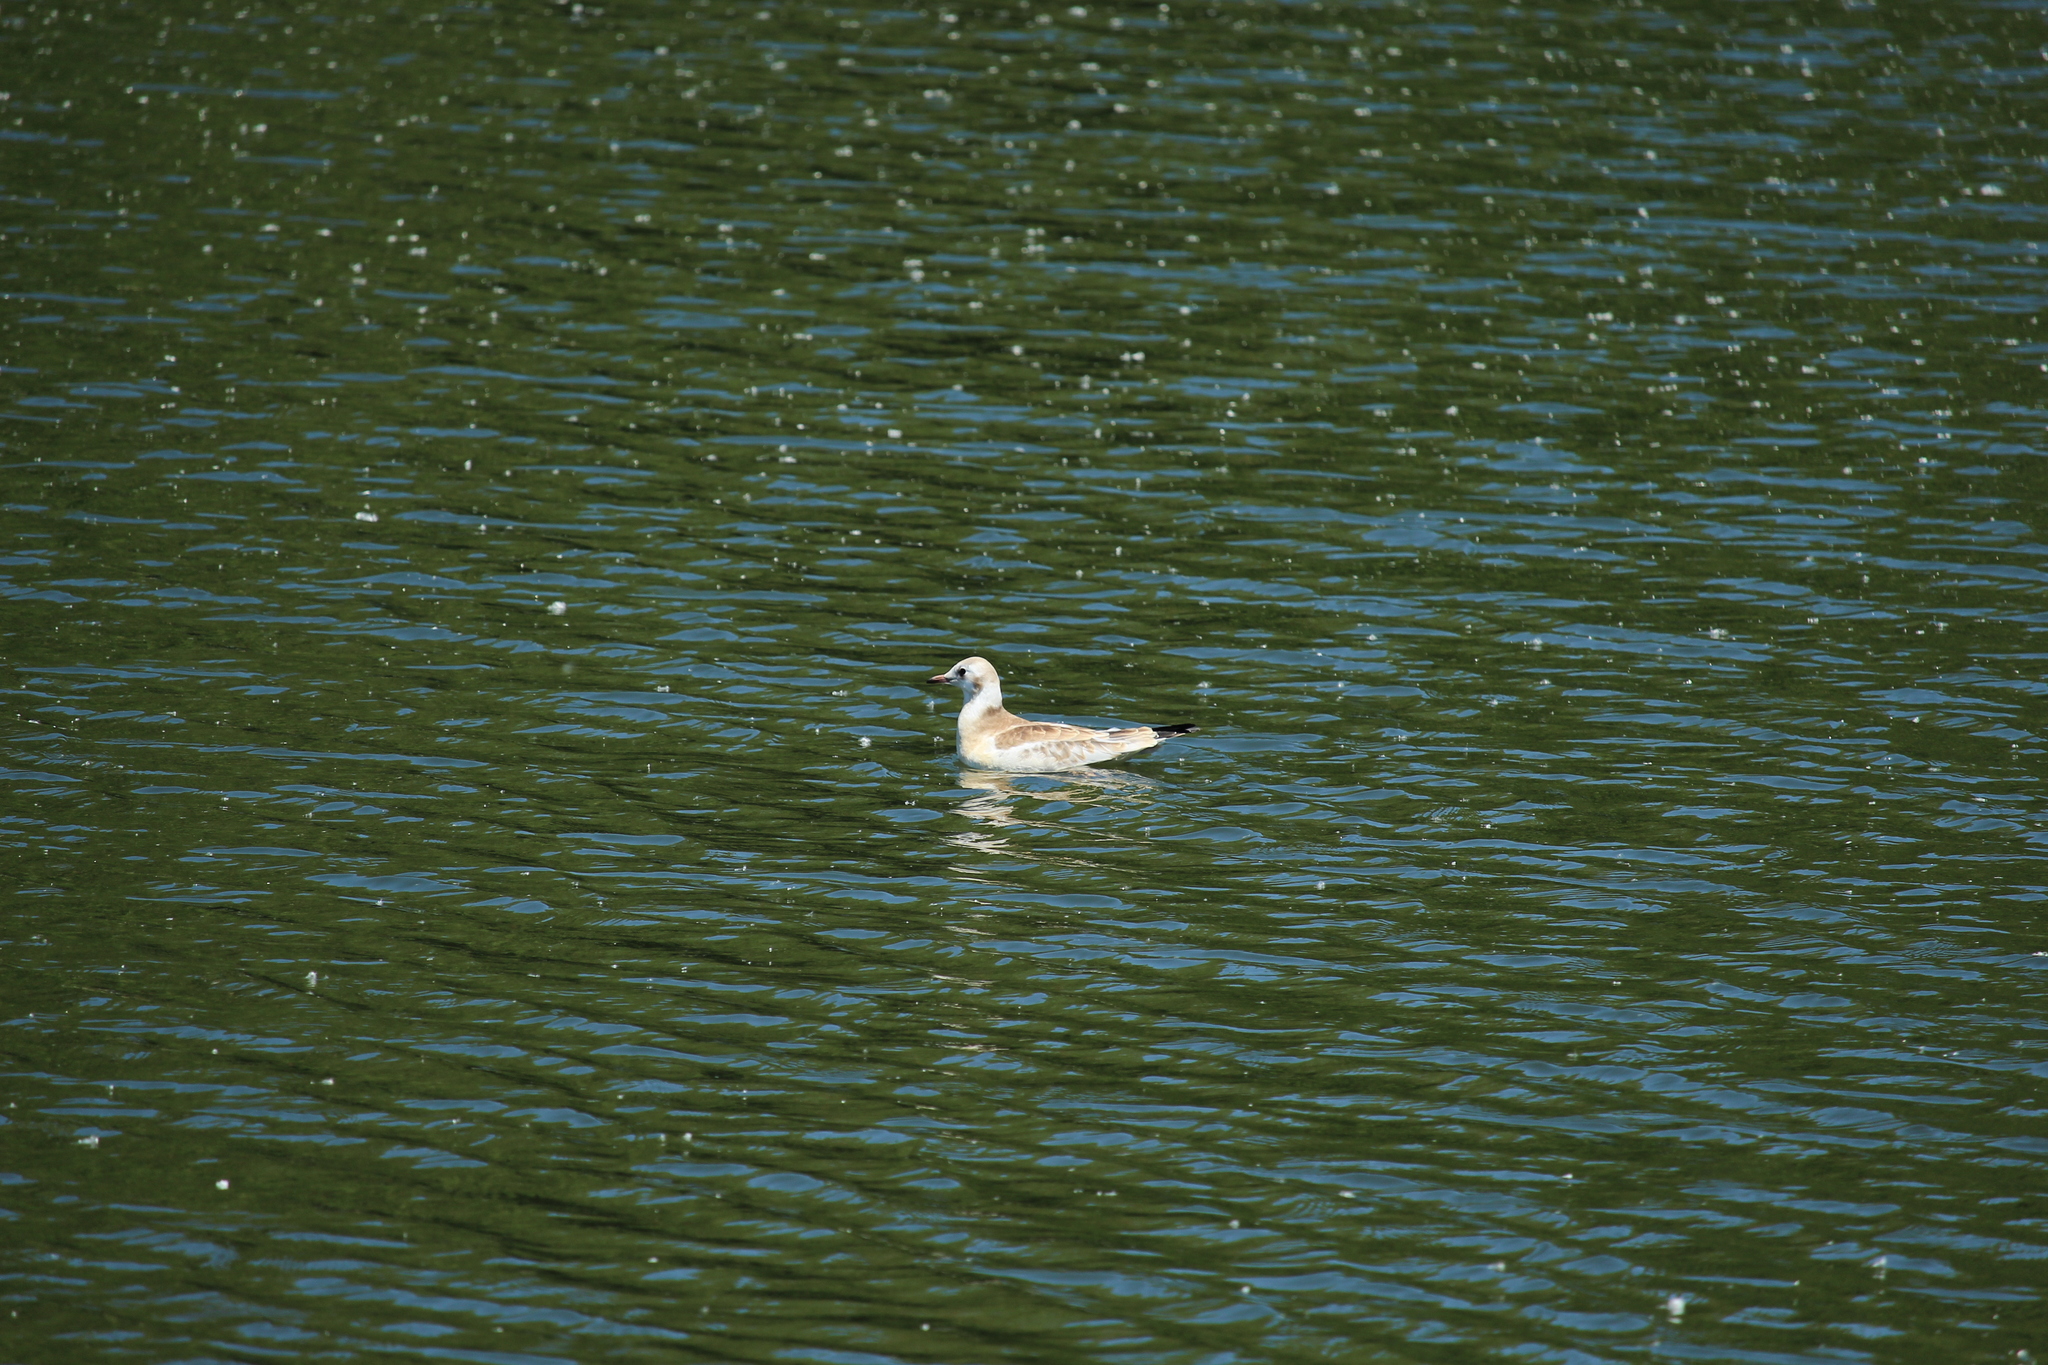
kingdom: Animalia
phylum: Chordata
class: Aves
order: Charadriiformes
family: Laridae
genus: Chroicocephalus
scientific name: Chroicocephalus ridibundus
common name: Black-headed gull
